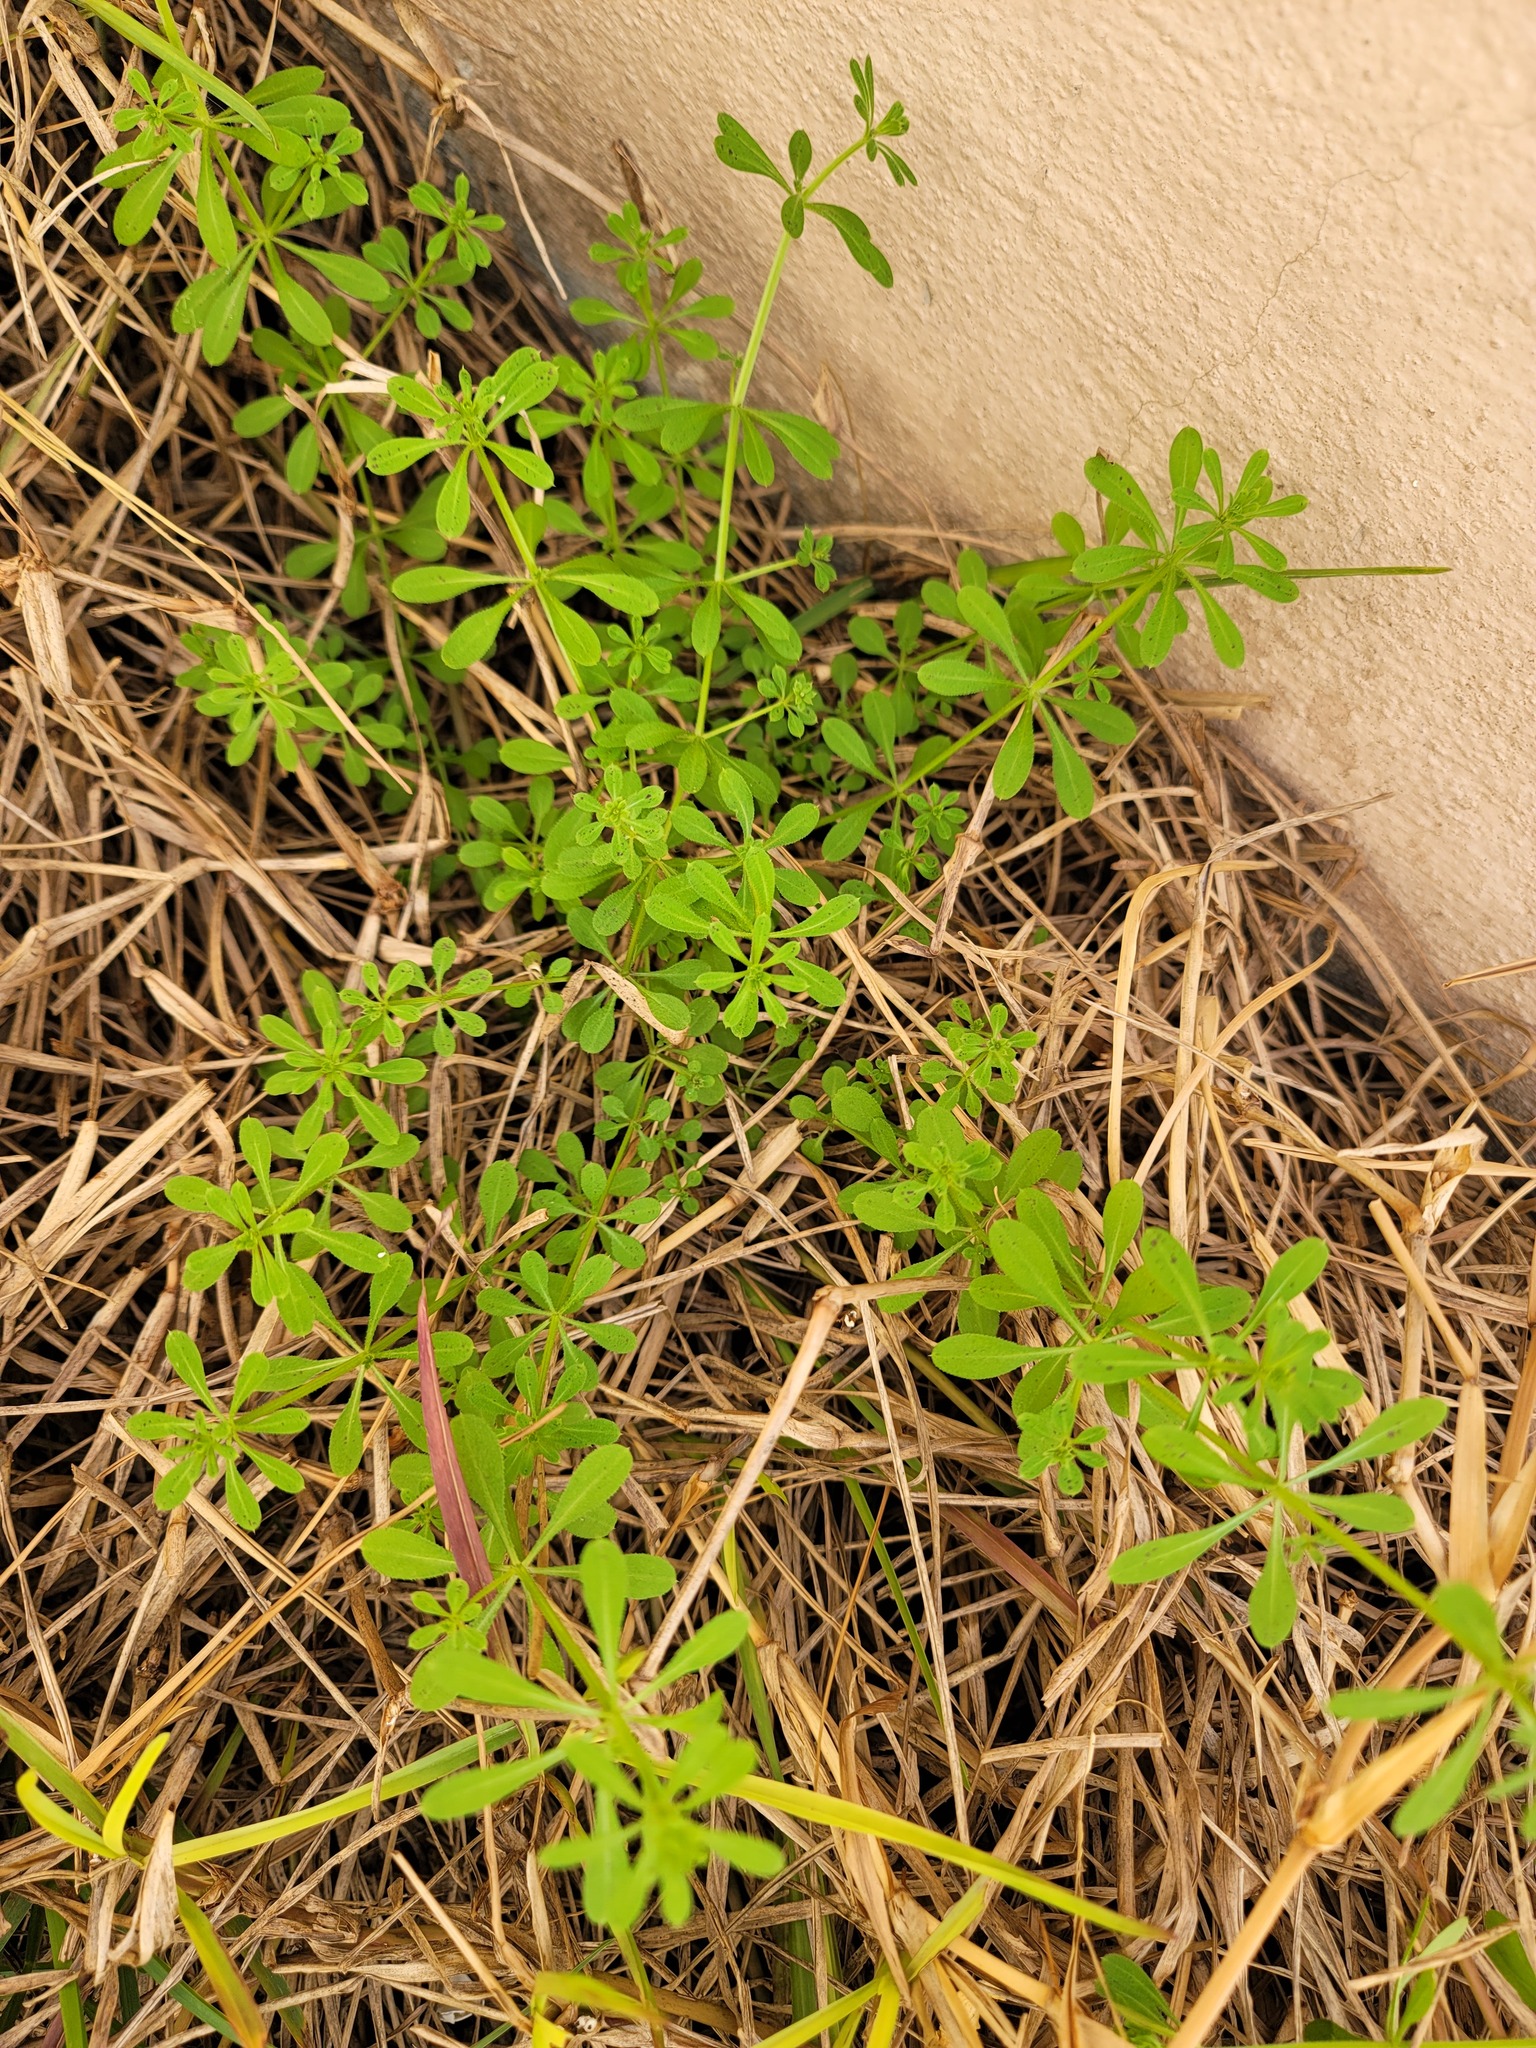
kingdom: Plantae
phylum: Tracheophyta
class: Magnoliopsida
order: Gentianales
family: Rubiaceae
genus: Galium
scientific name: Galium aparine
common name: Cleavers
